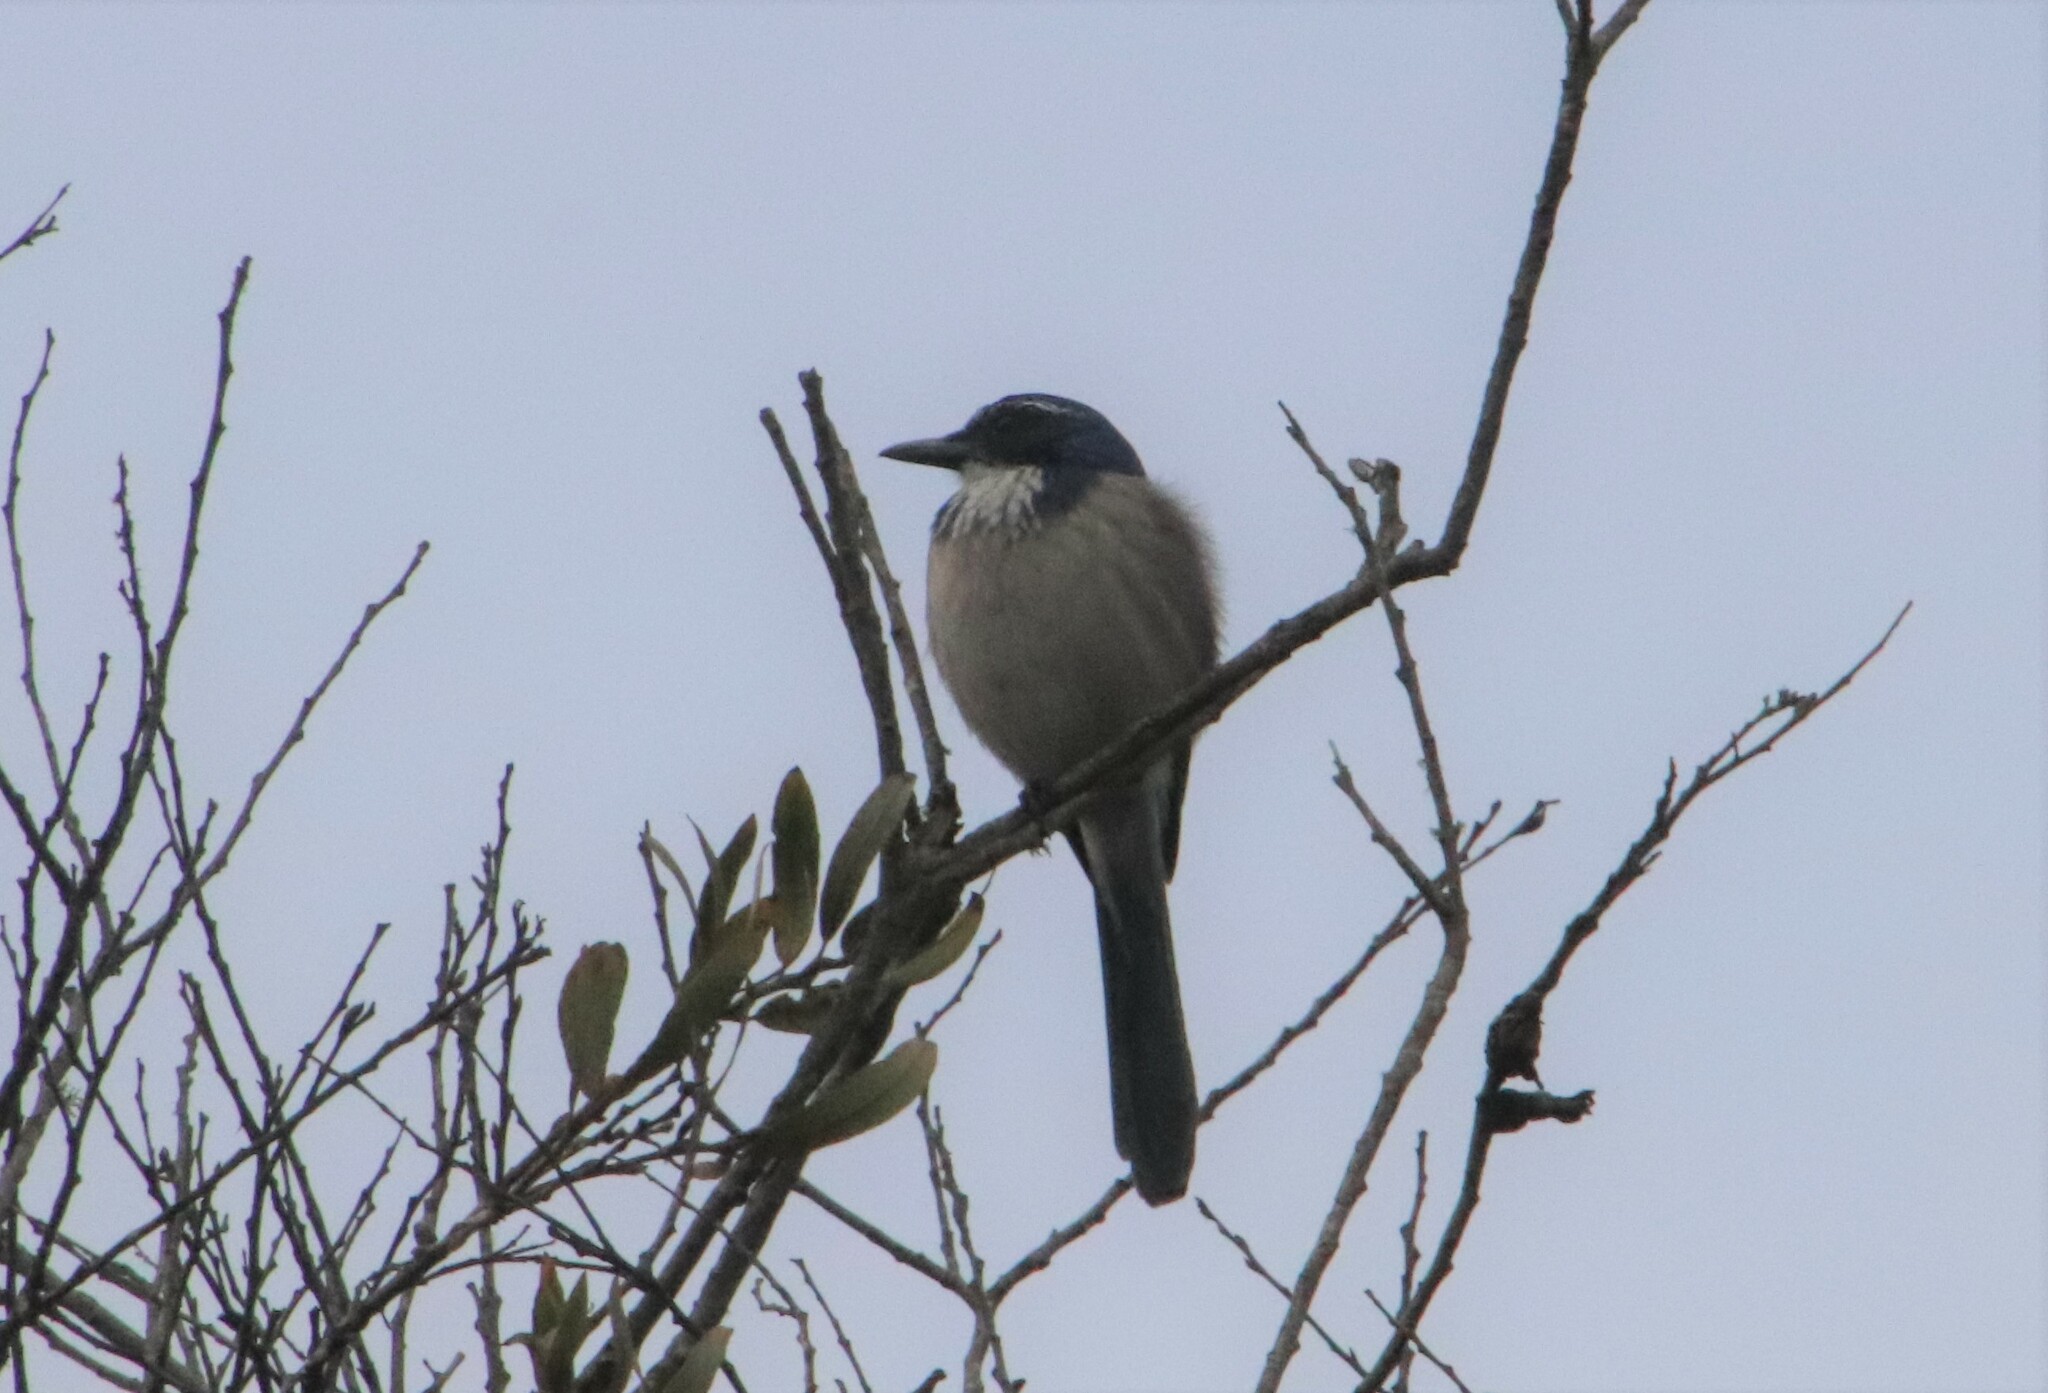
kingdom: Animalia
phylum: Chordata
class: Aves
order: Passeriformes
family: Corvidae
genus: Aphelocoma
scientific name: Aphelocoma californica
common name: California scrub-jay
